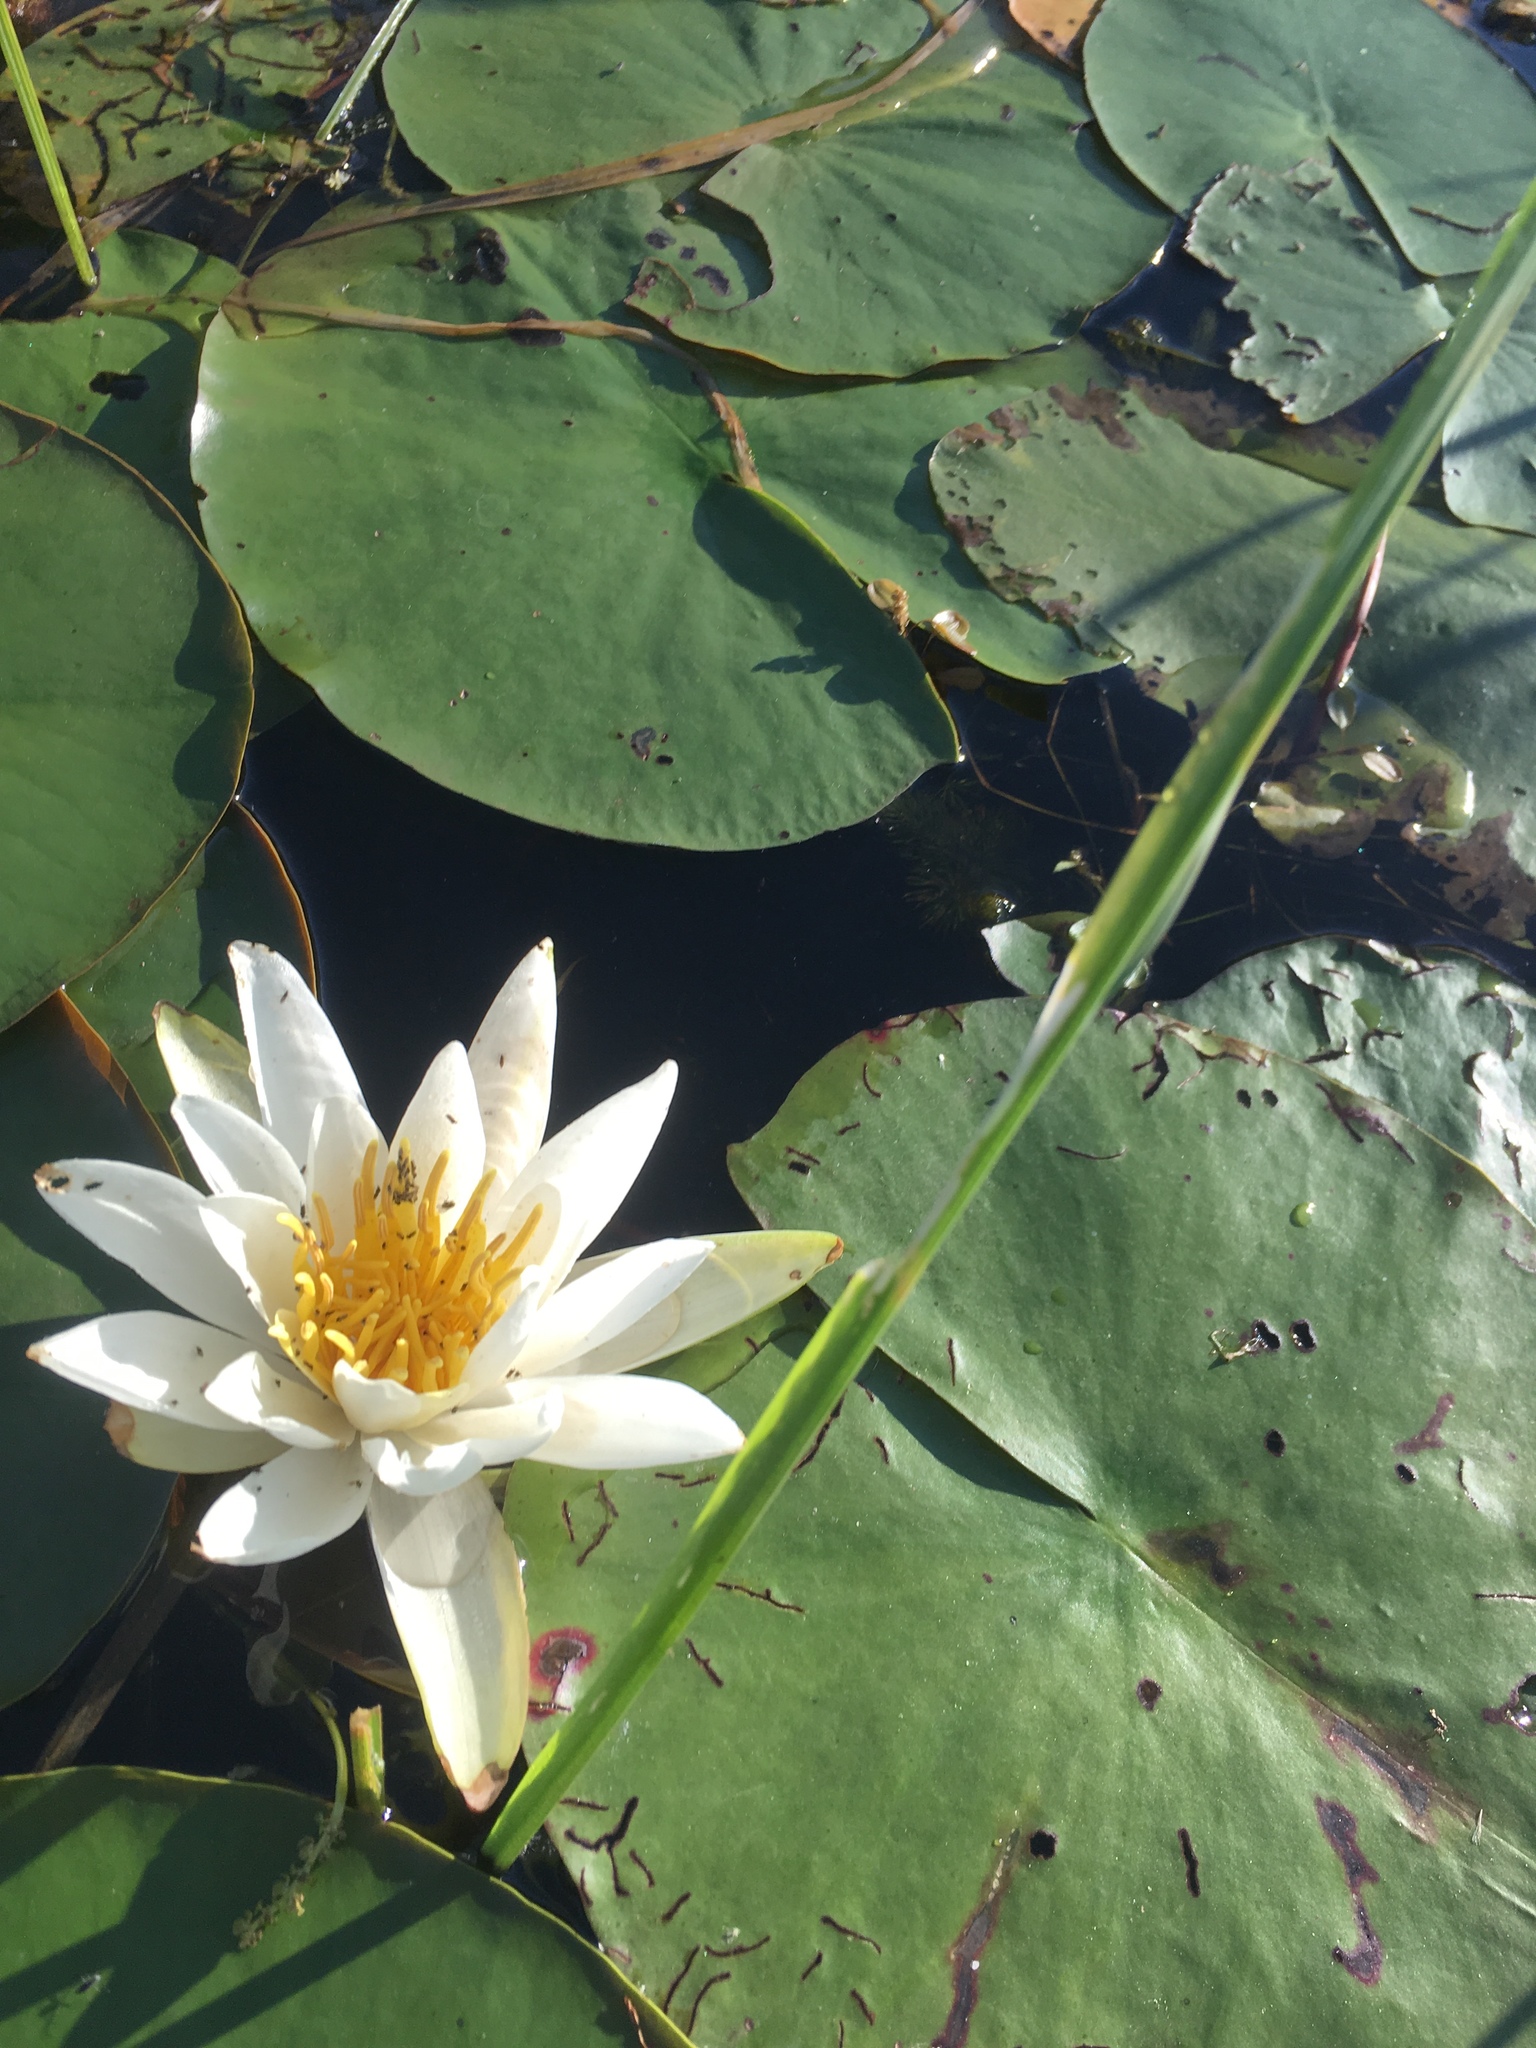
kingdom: Plantae
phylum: Tracheophyta
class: Magnoliopsida
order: Nymphaeales
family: Nymphaeaceae
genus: Nymphaea
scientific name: Nymphaea odorata
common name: Fragrant water-lily
